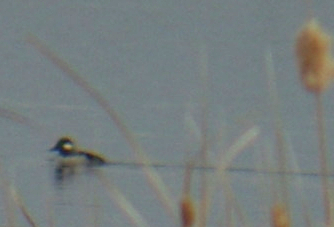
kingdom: Animalia
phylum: Chordata
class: Aves
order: Anseriformes
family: Anatidae
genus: Bucephala
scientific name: Bucephala albeola
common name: Bufflehead
